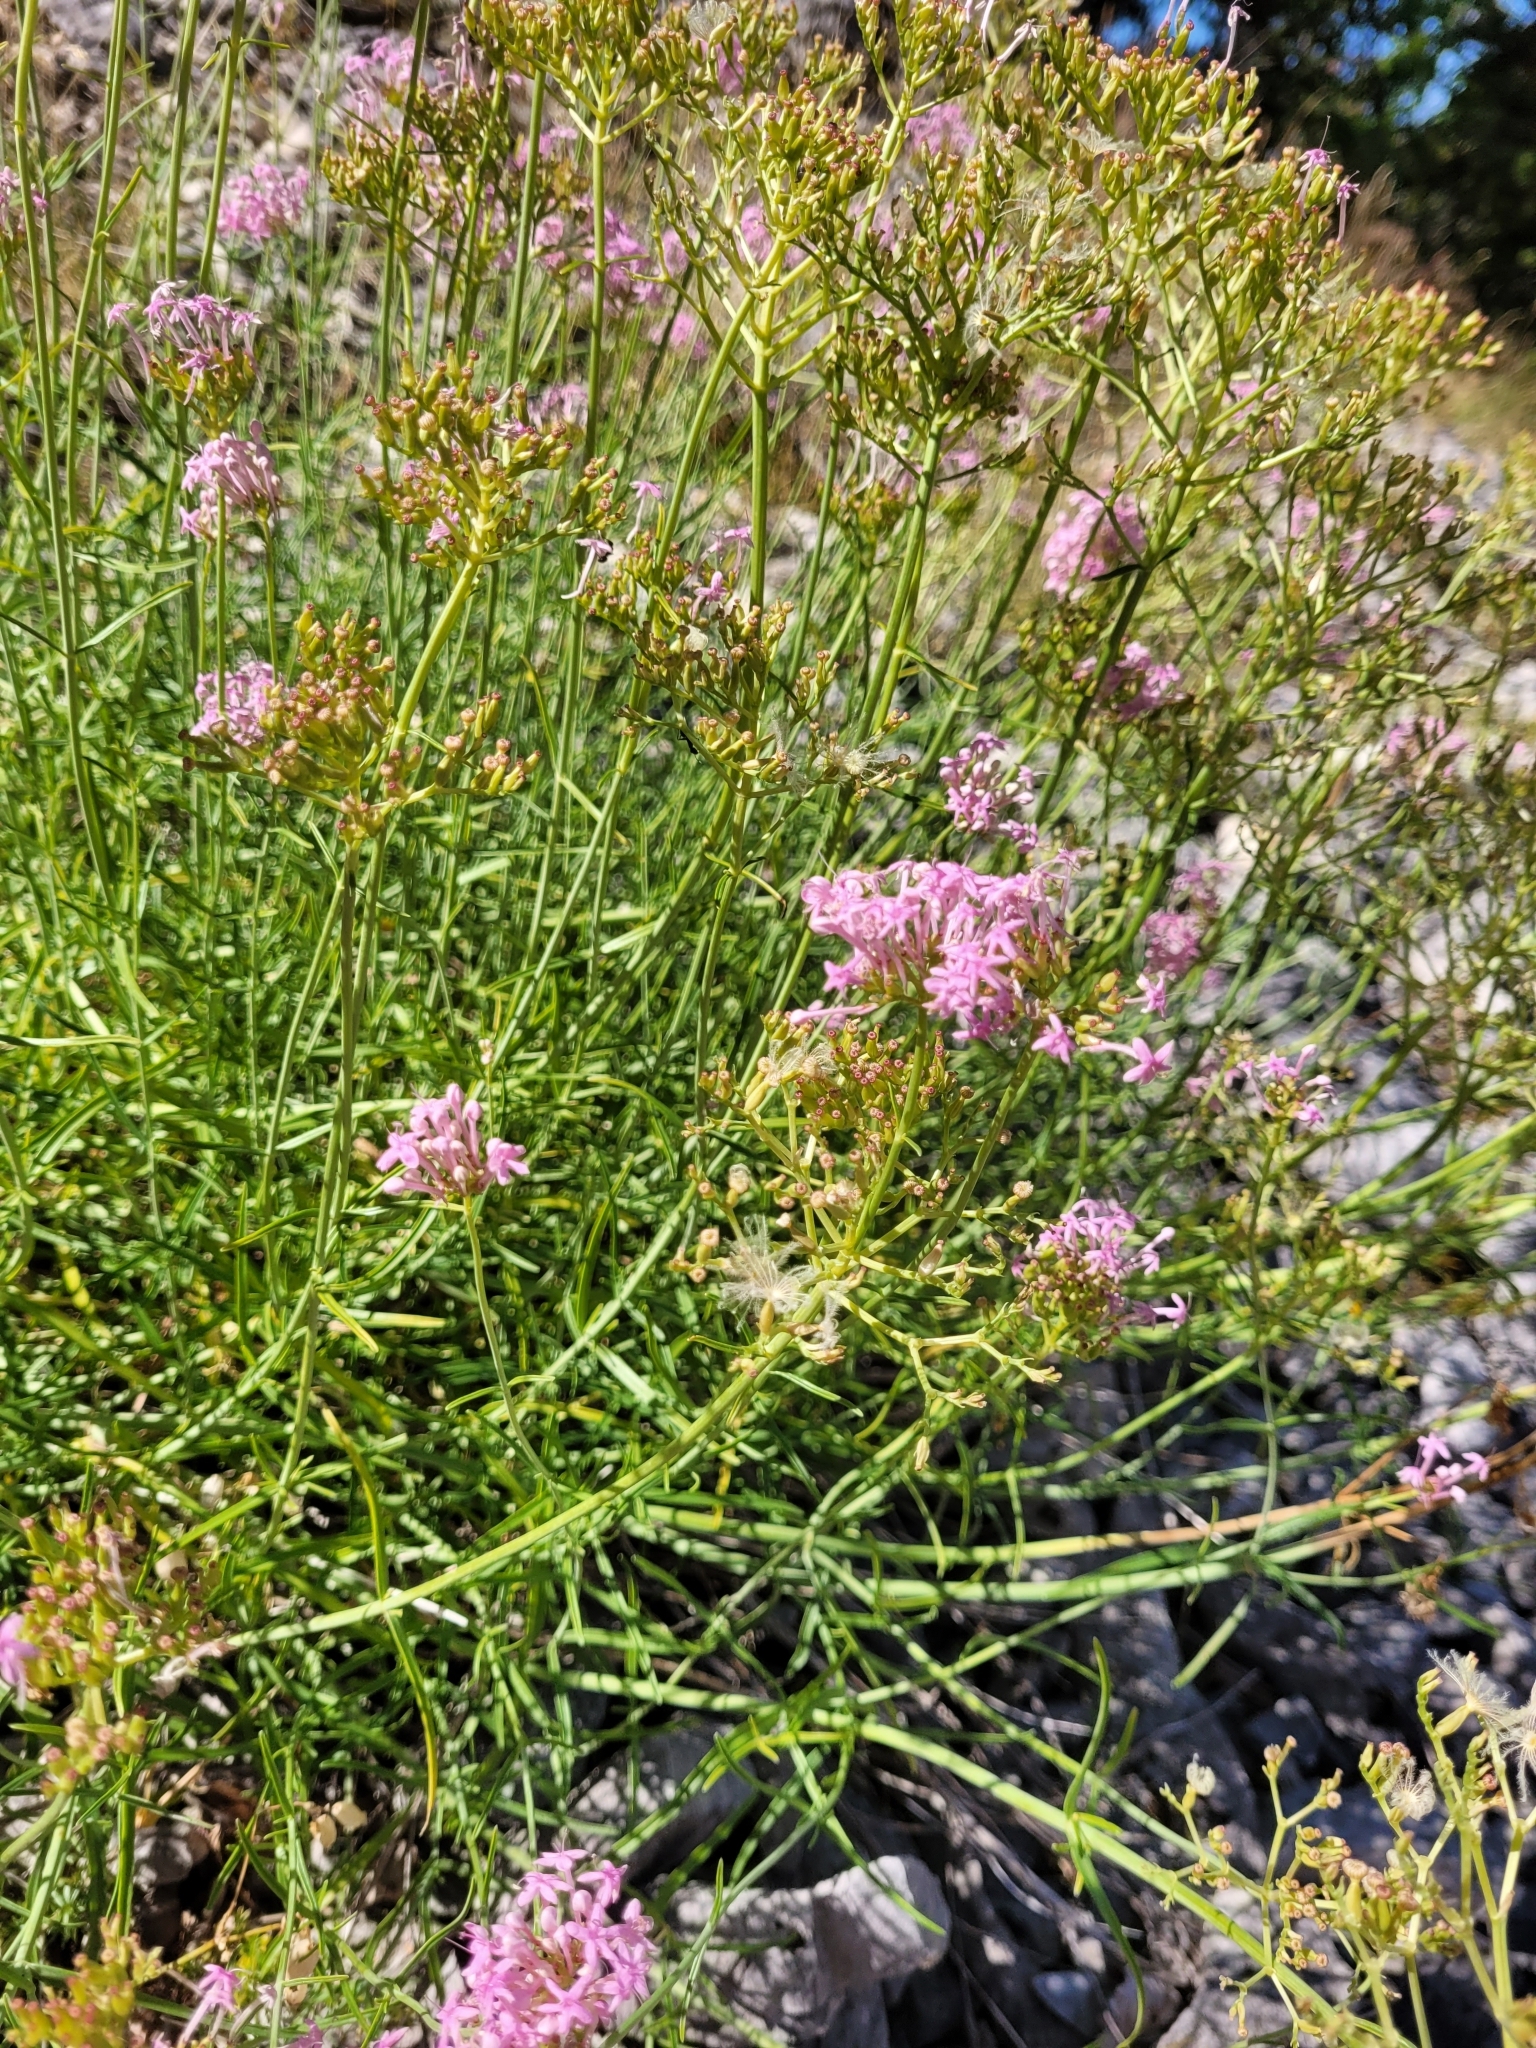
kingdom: Plantae
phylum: Tracheophyta
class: Magnoliopsida
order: Dipsacales
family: Caprifoliaceae
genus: Centranthus
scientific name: Centranthus angustifolius
